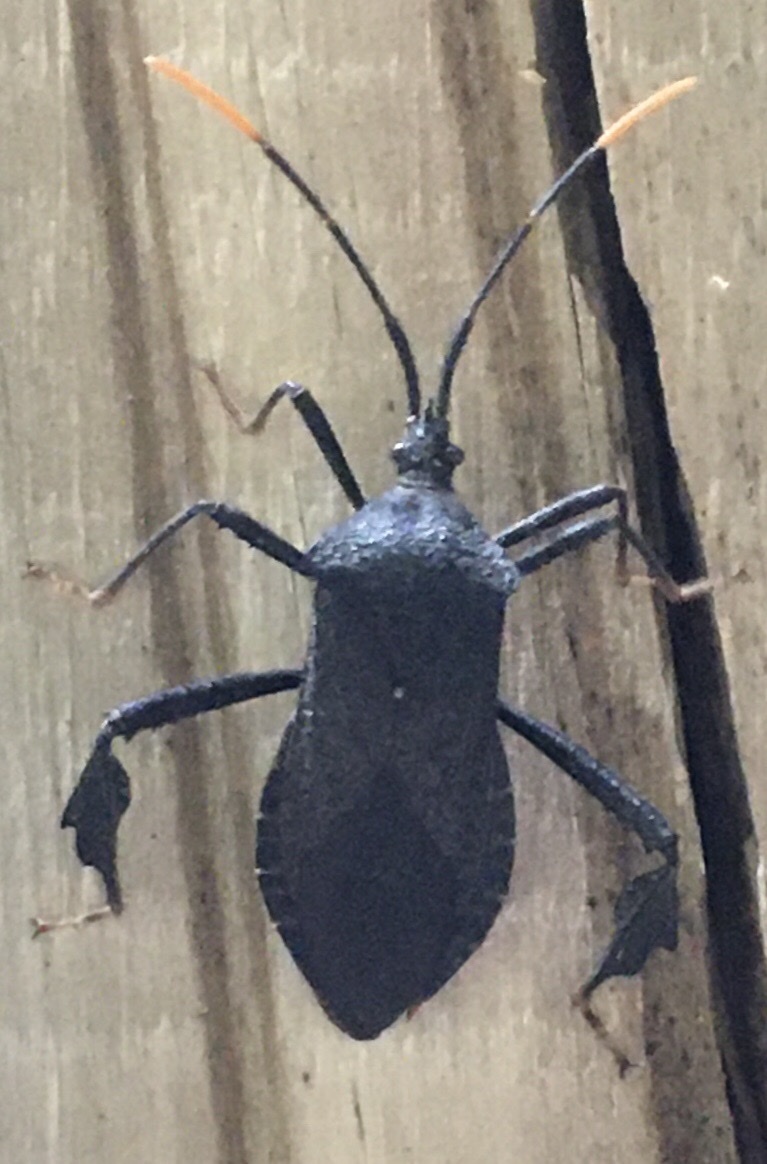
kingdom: Animalia
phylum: Arthropoda
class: Insecta
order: Hemiptera
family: Coreidae
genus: Acanthocephala
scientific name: Acanthocephala terminalis
